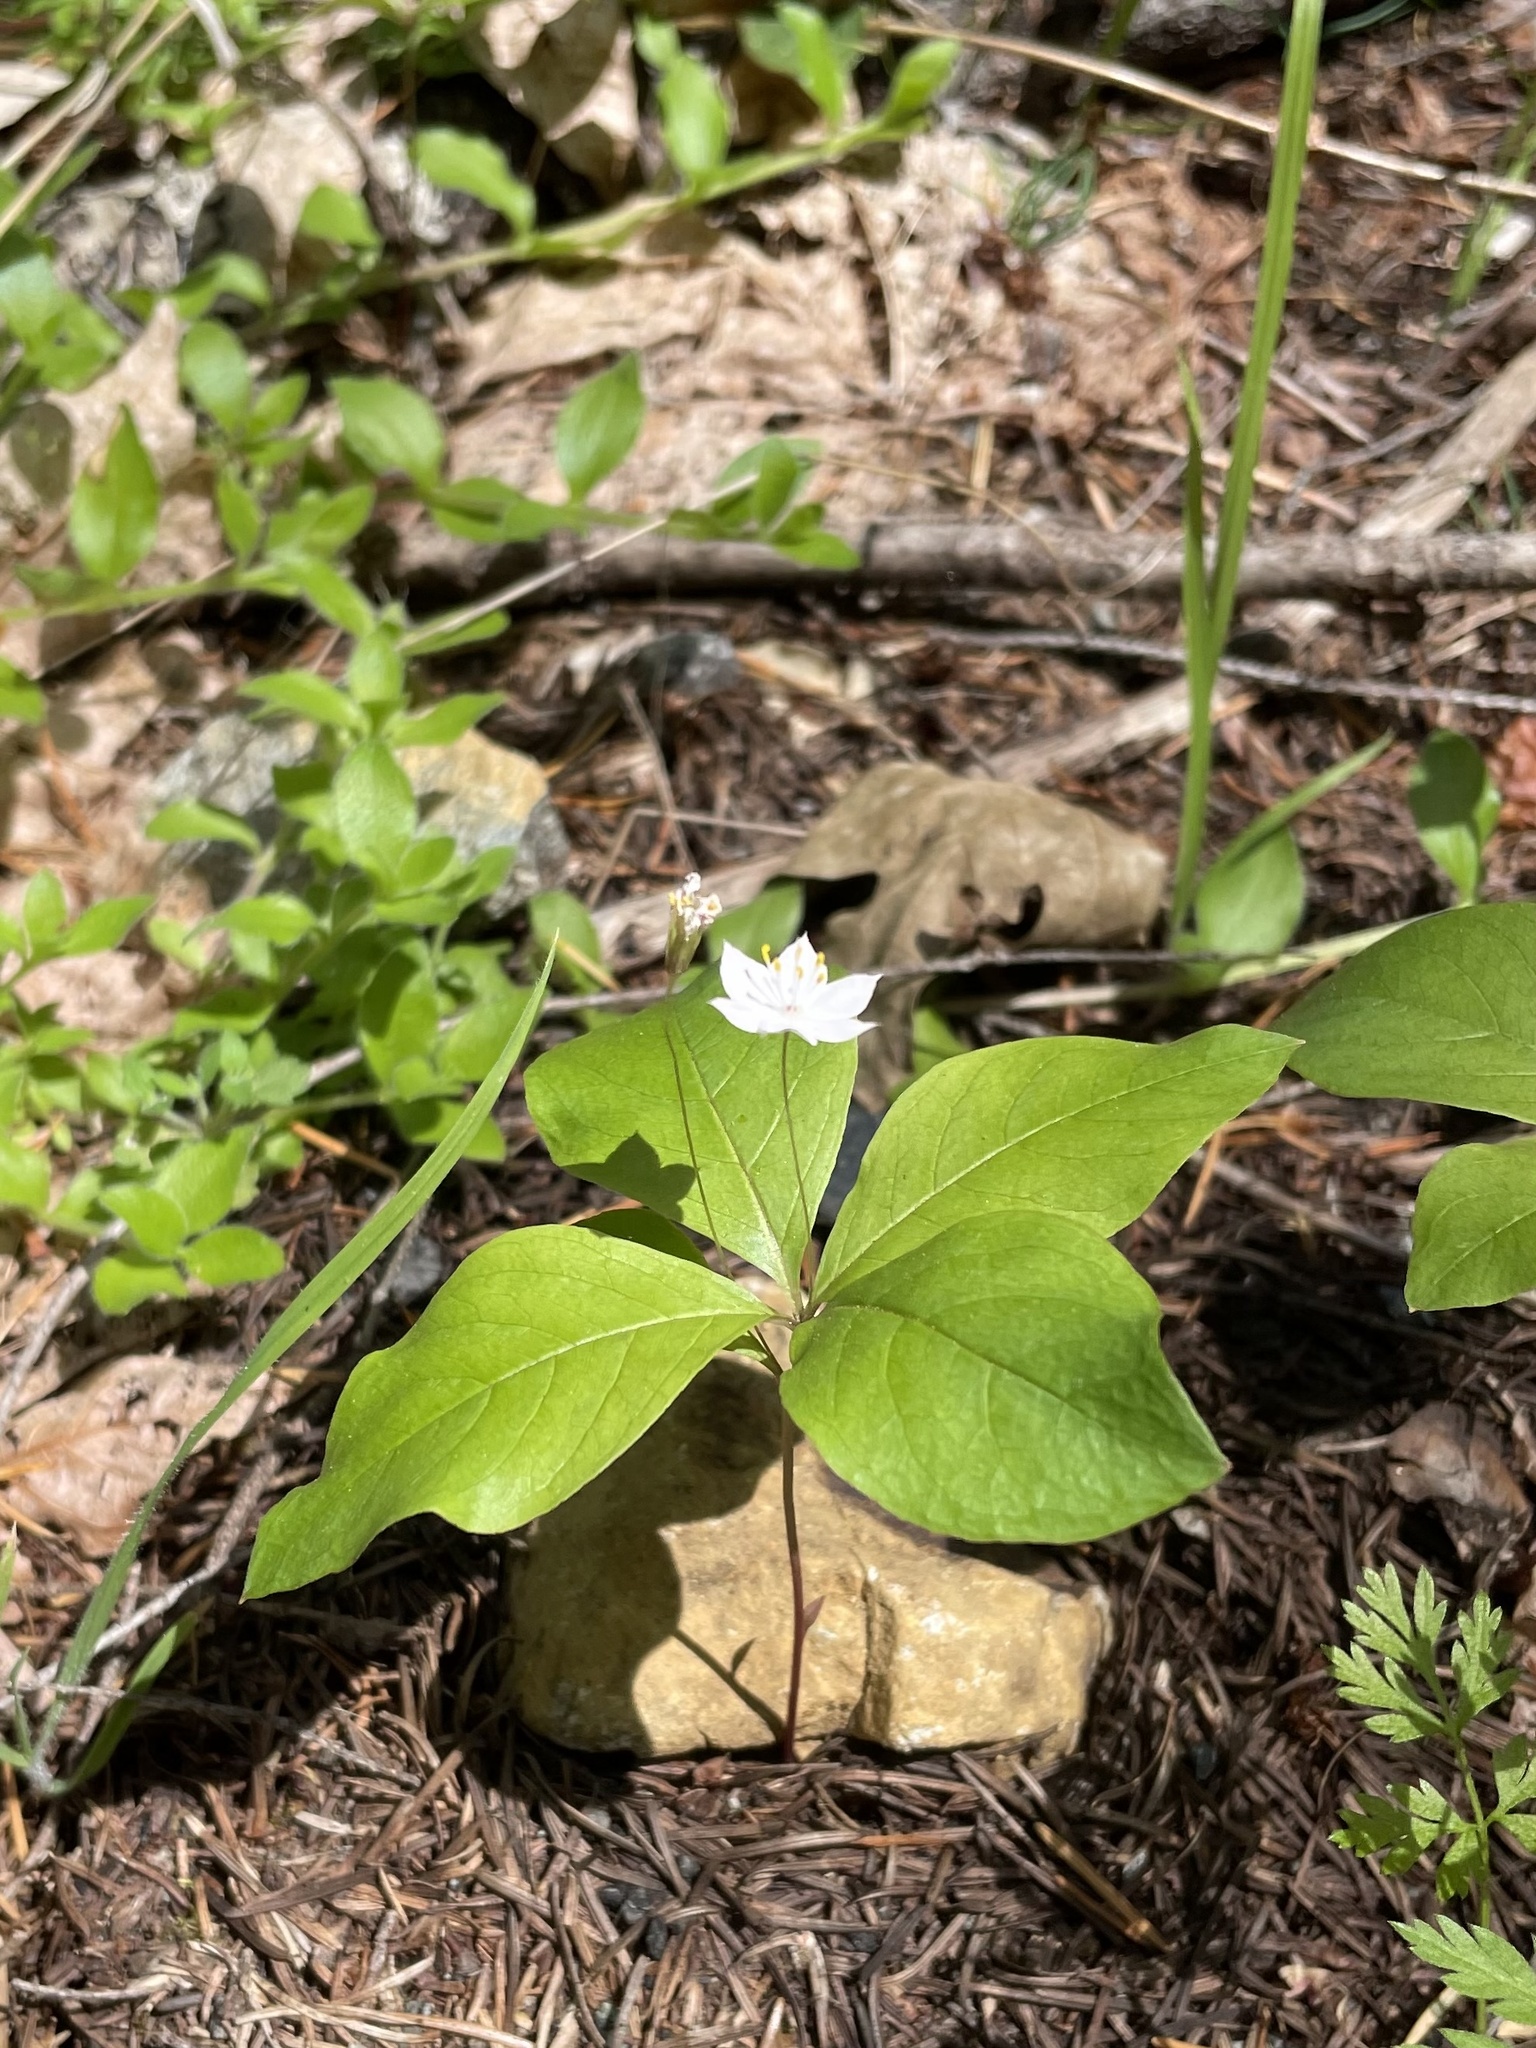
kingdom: Plantae
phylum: Tracheophyta
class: Magnoliopsida
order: Ericales
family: Primulaceae
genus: Lysimachia
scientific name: Lysimachia latifolia
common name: Pacific starflower
